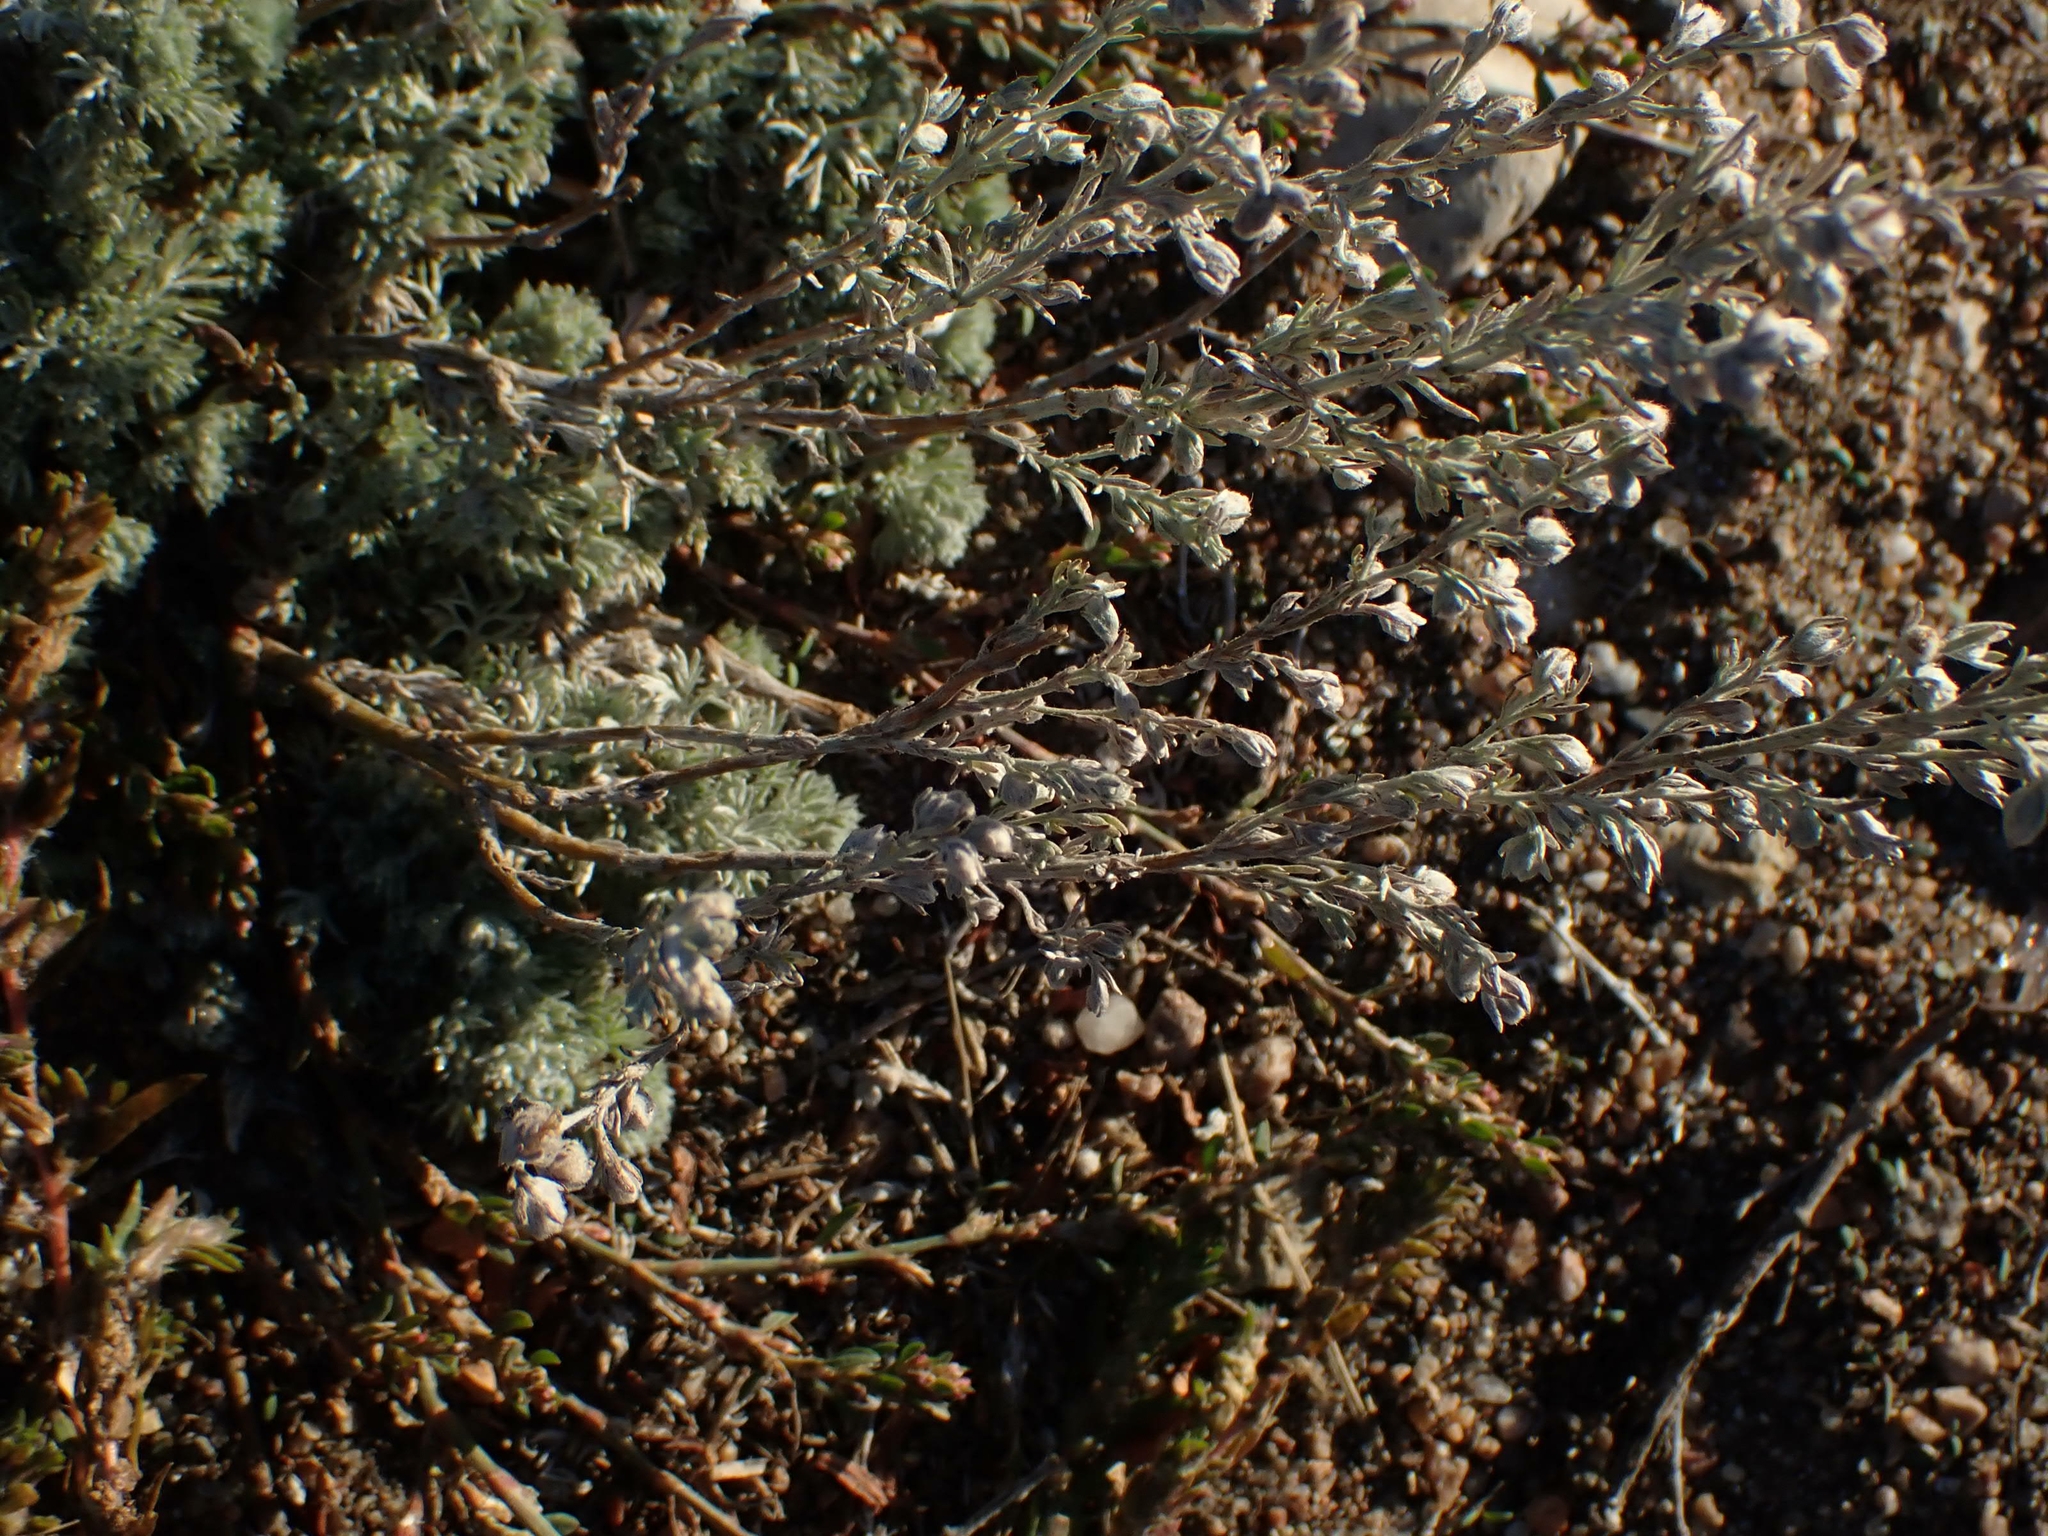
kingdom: Plantae
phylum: Tracheophyta
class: Magnoliopsida
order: Asterales
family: Asteraceae
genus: Artemisia
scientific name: Artemisia frigida
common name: Prairie sagewort
